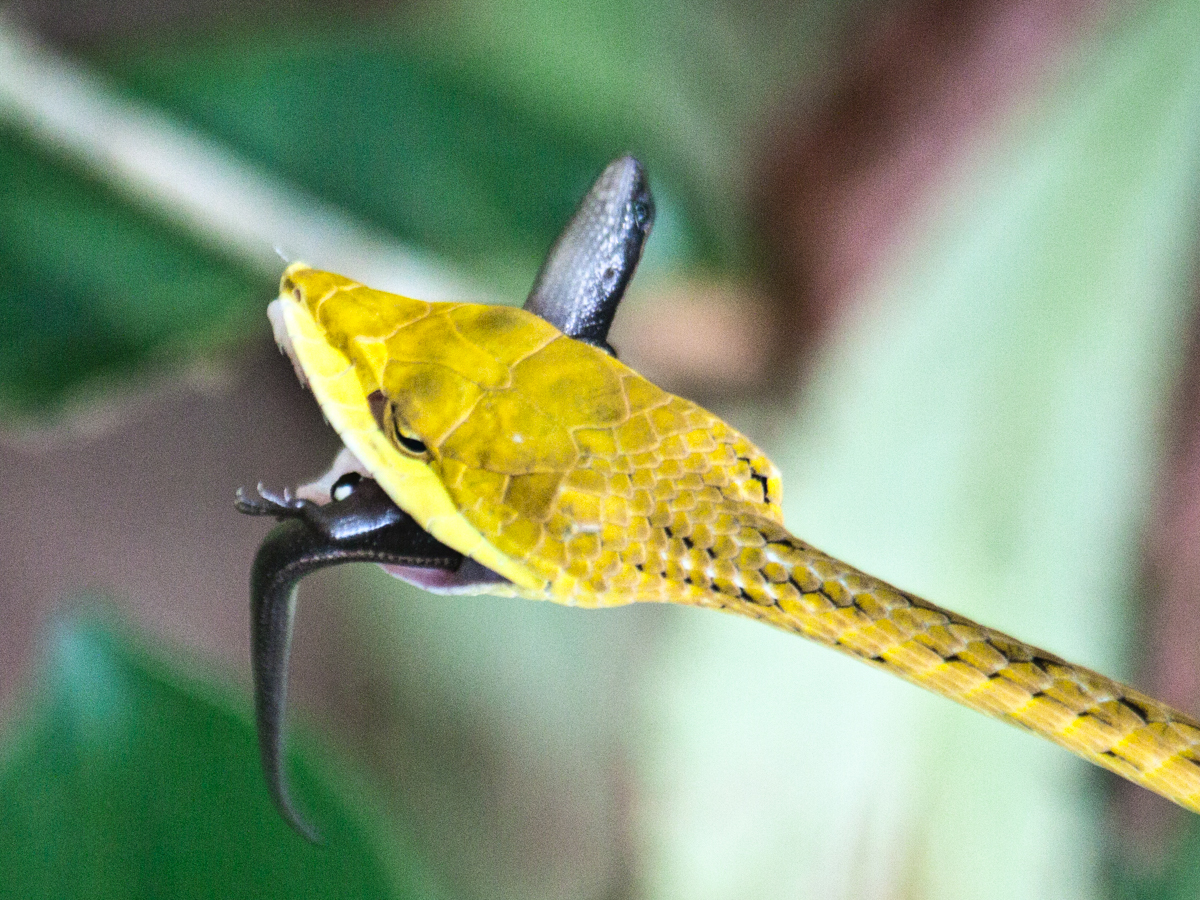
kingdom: Animalia
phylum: Chordata
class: Squamata
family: Colubridae
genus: Ahaetulla
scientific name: Ahaetulla prasina
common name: Oriental whip snake
